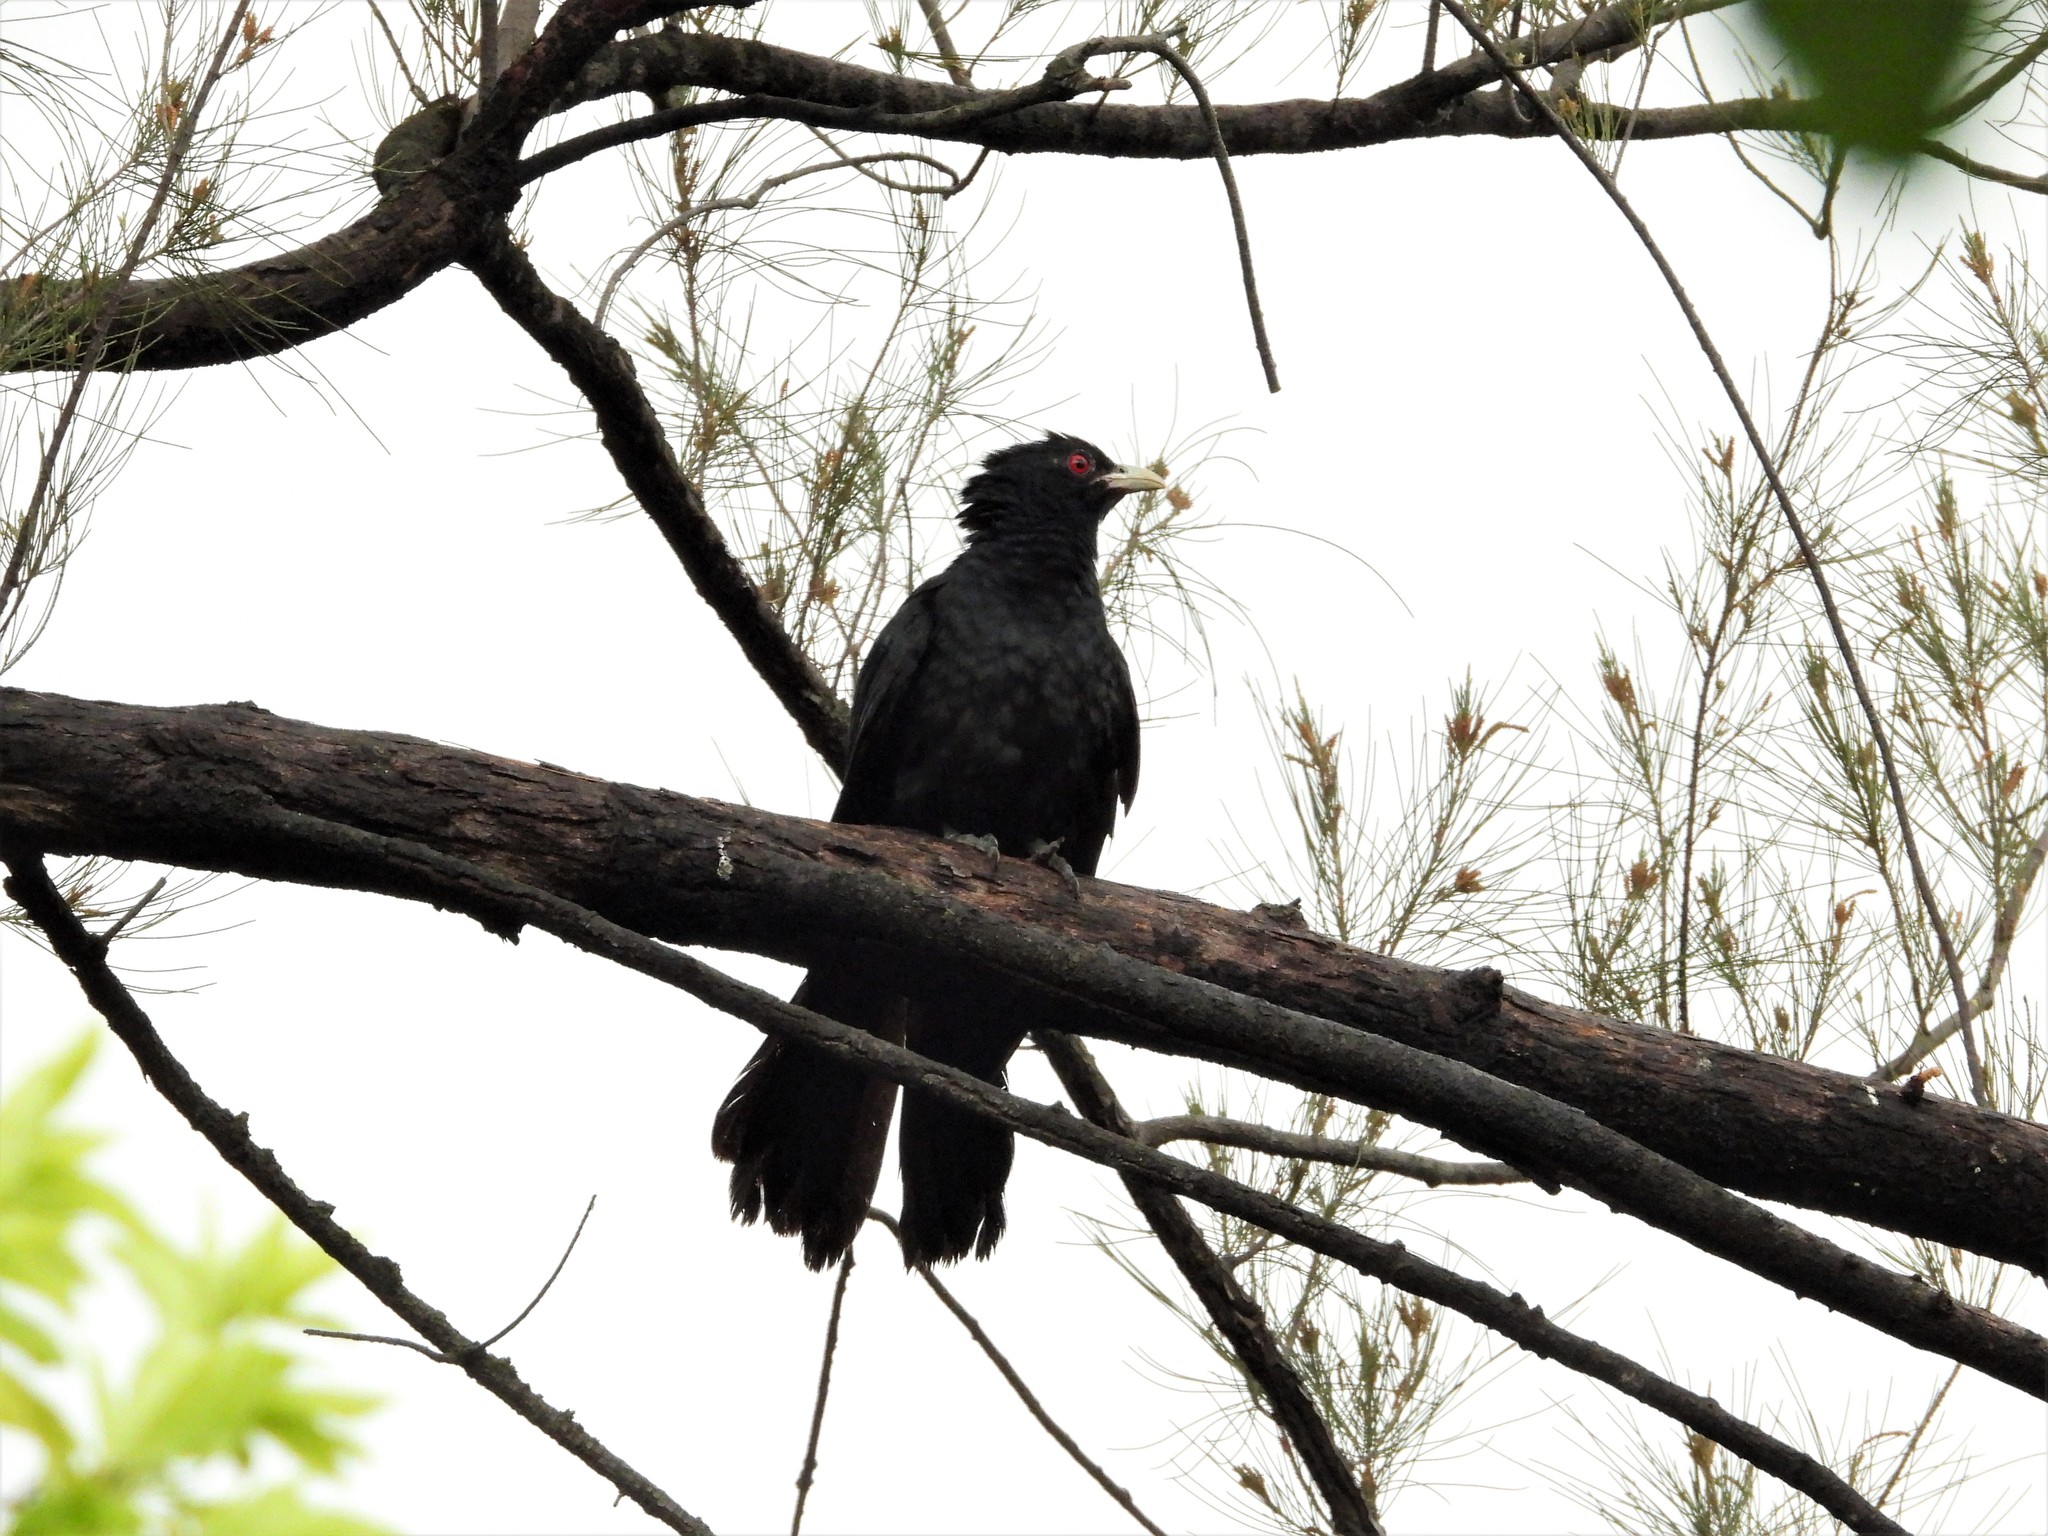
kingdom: Animalia
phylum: Chordata
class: Aves
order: Cuculiformes
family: Cuculidae
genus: Eudynamys
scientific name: Eudynamys scolopaceus
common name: Asian koel
